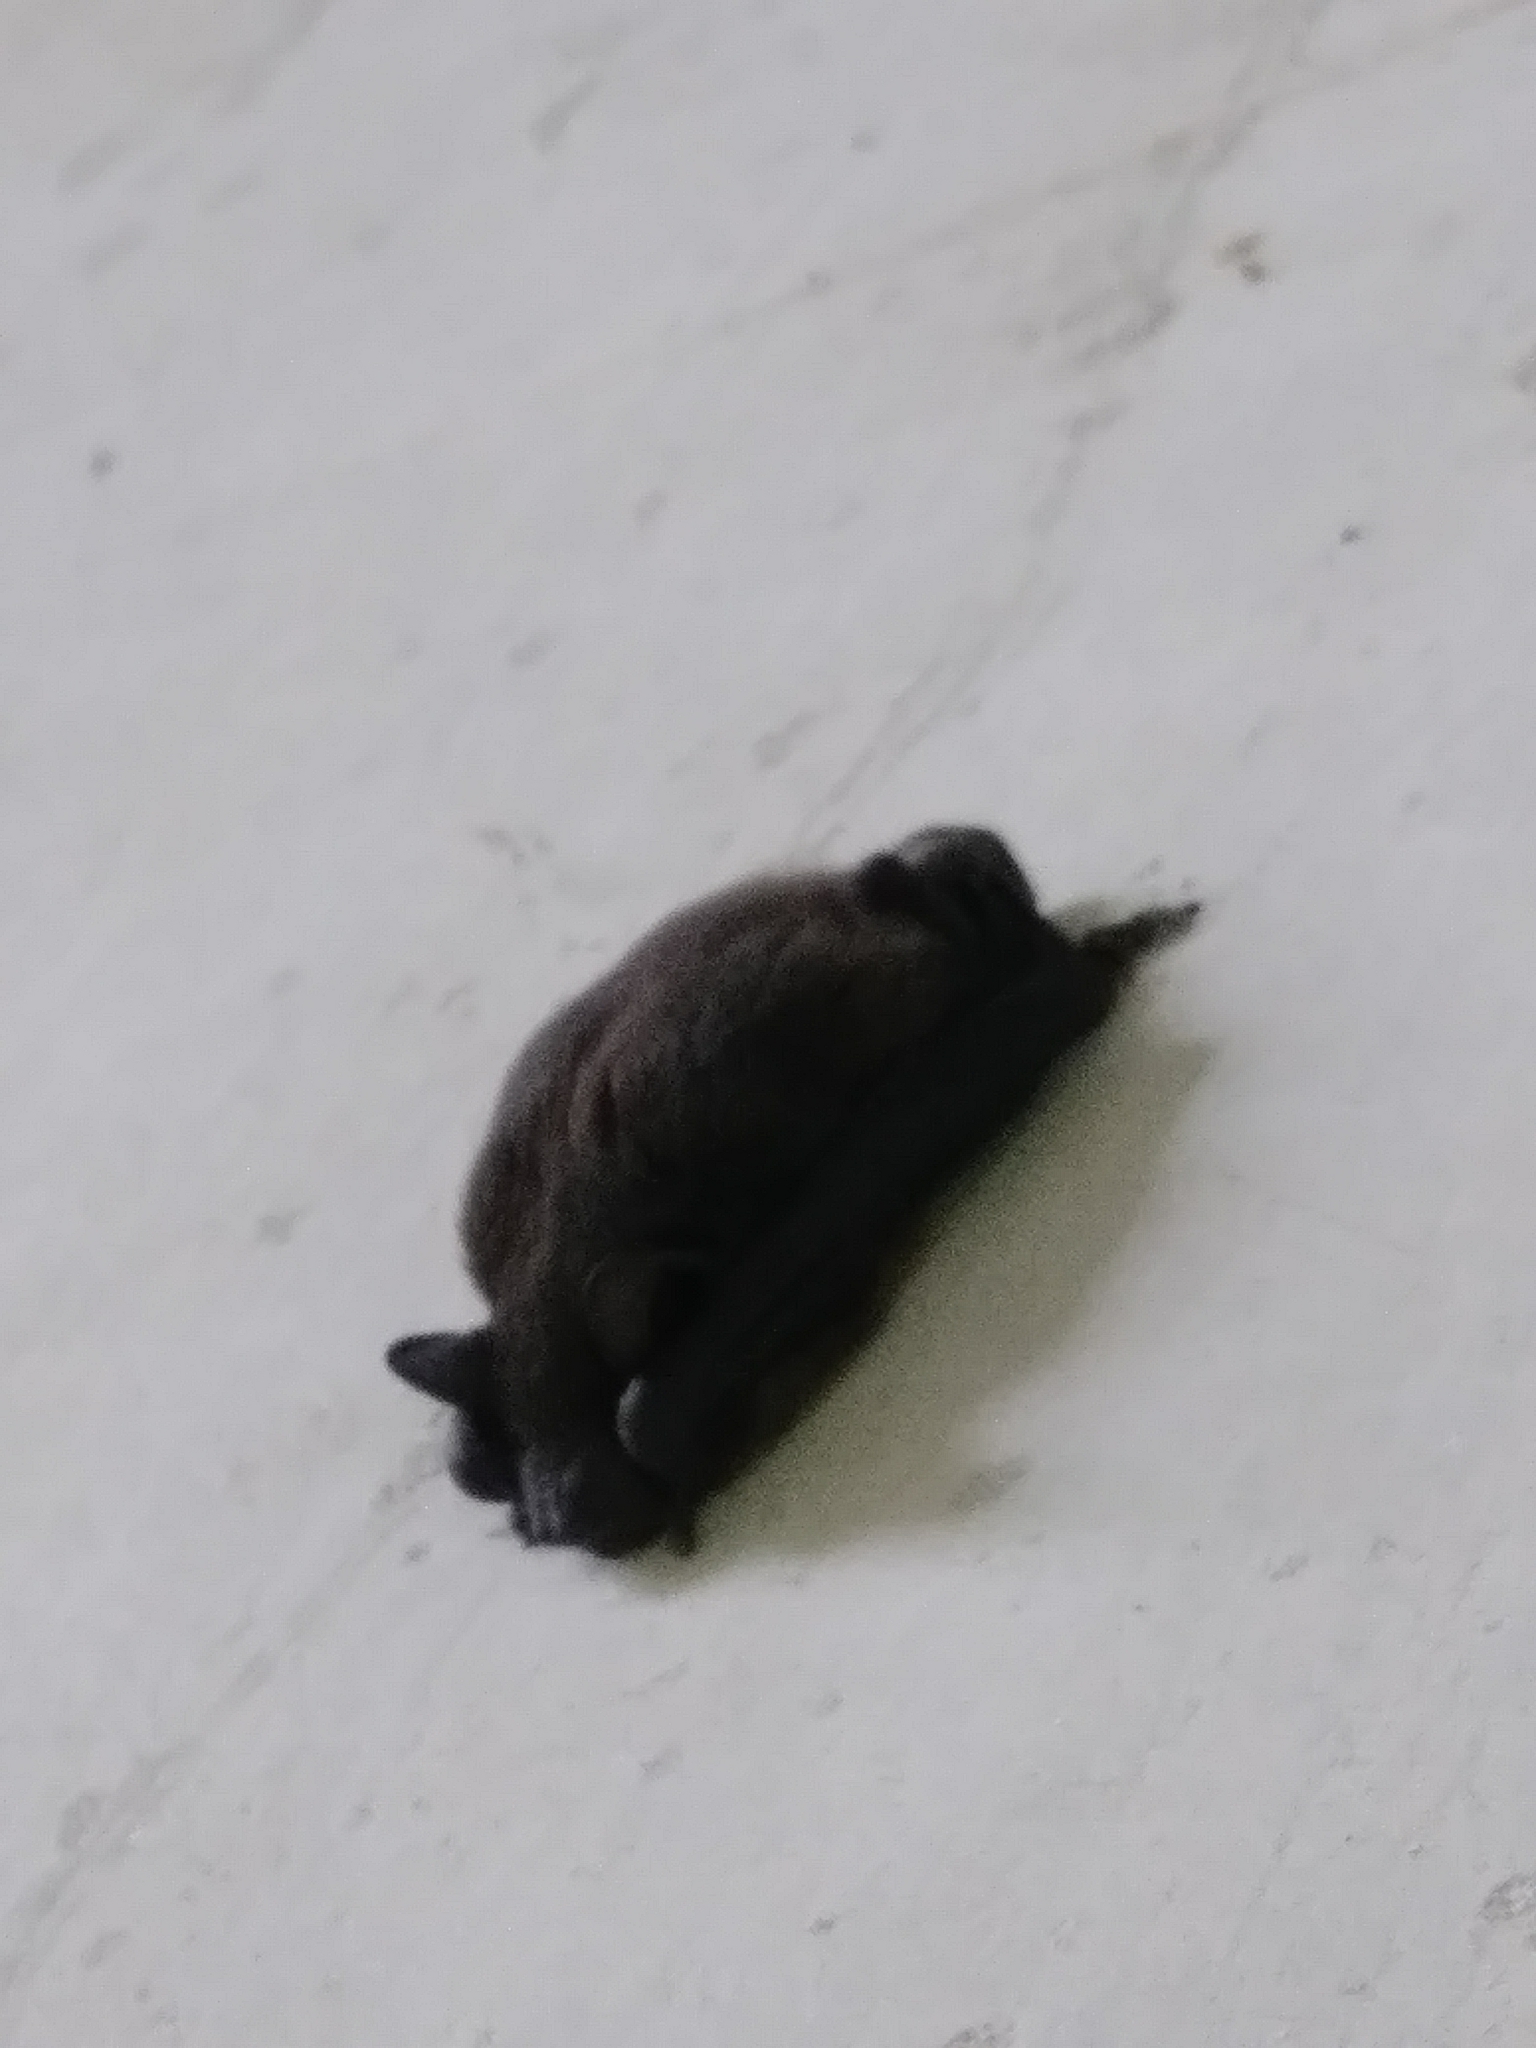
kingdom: Animalia
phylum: Chordata
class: Mammalia
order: Chiroptera
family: Vespertilionidae
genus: Nycticeius
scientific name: Nycticeius humeralis
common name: Evening bat
